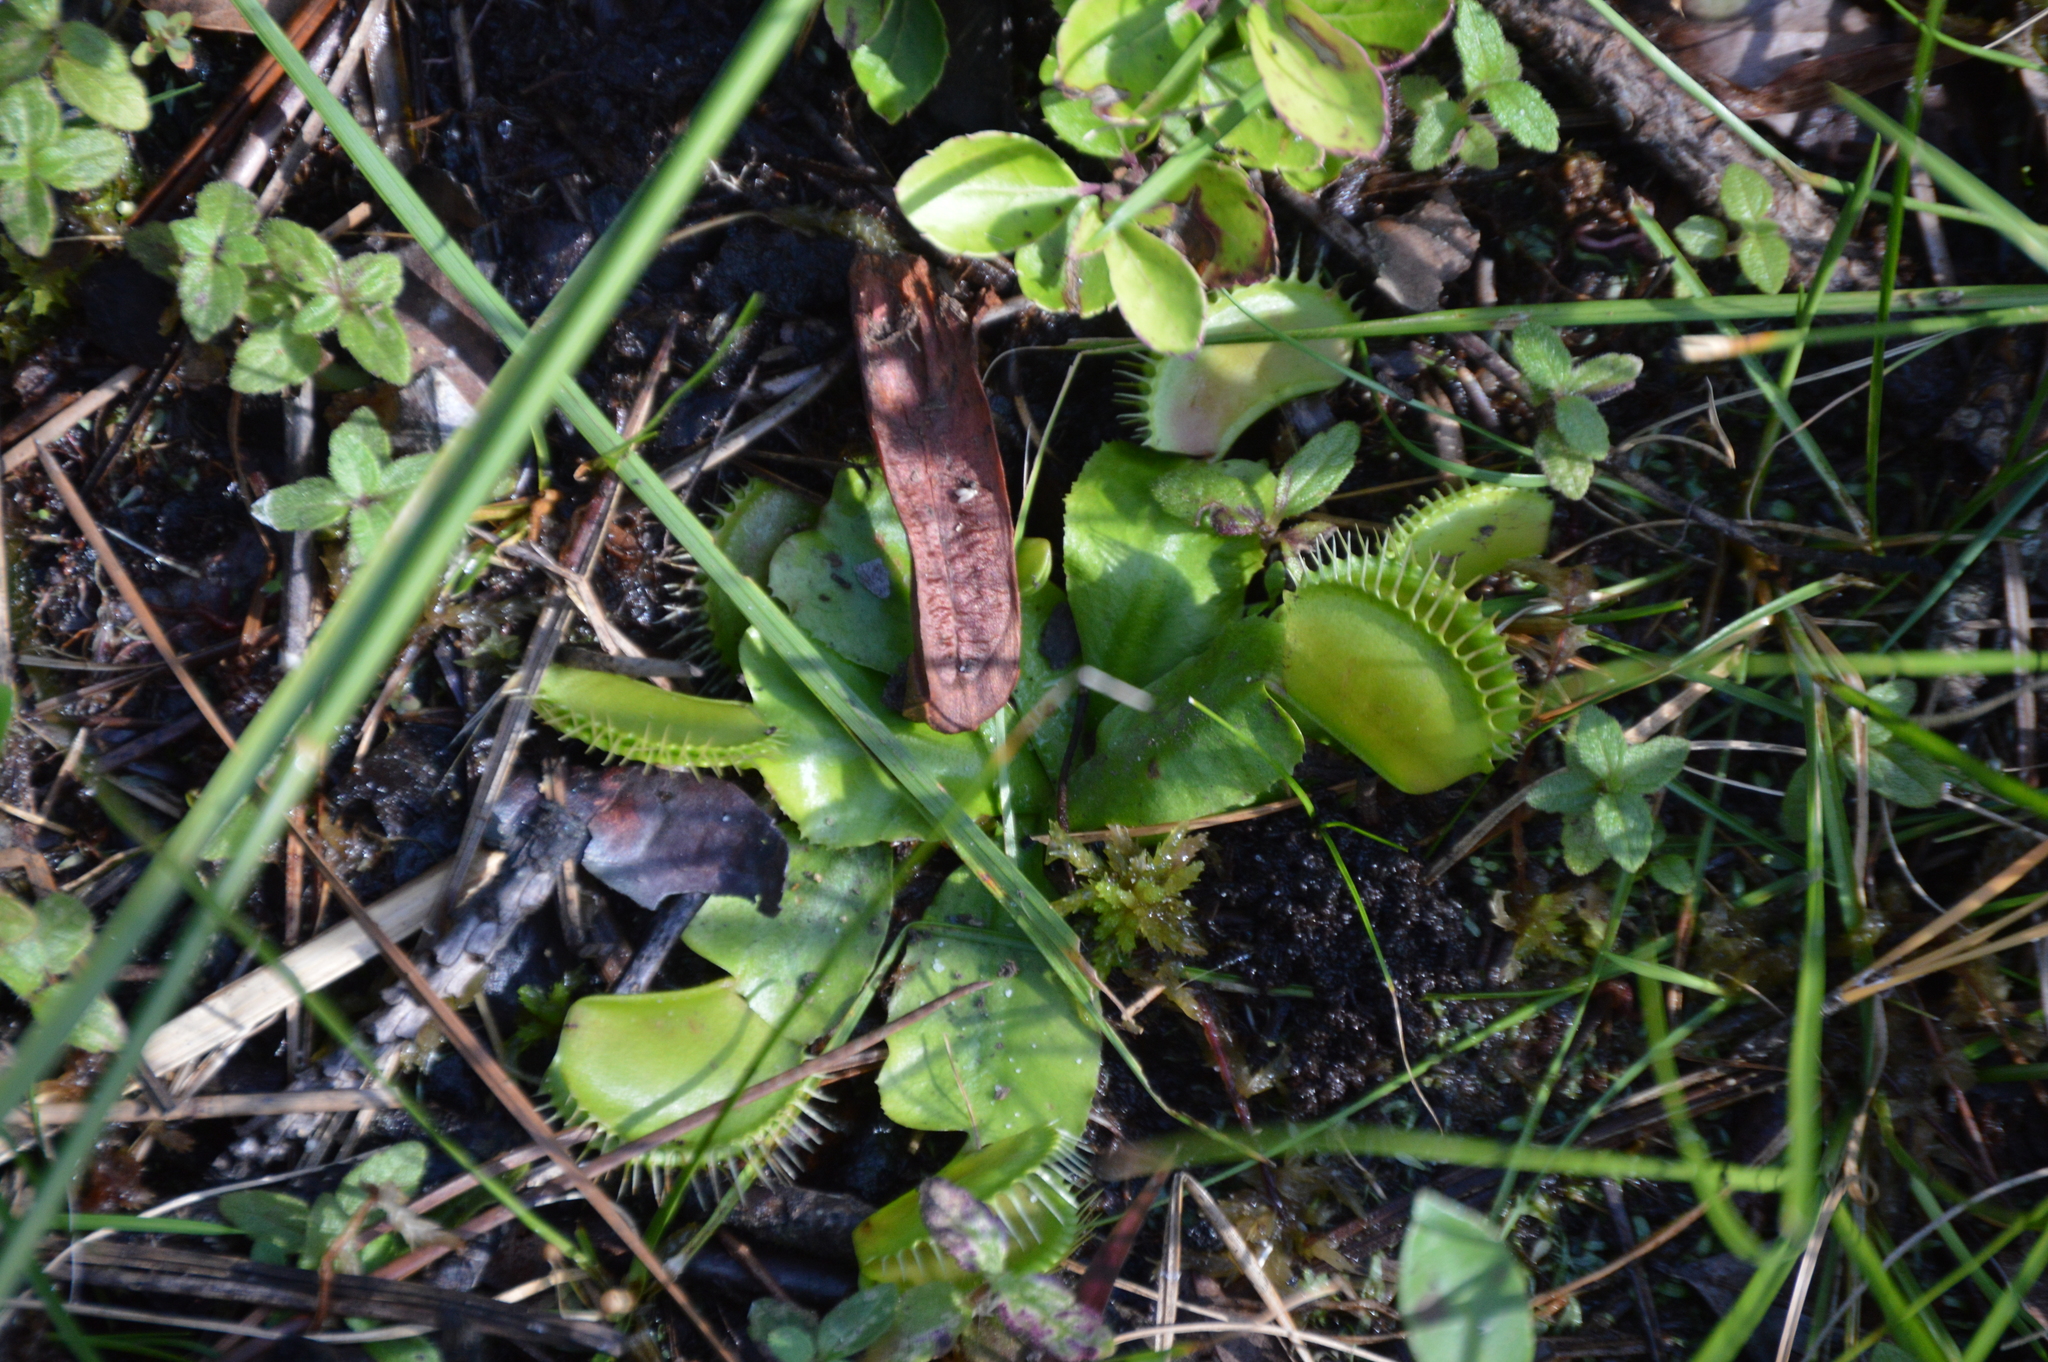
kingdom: Plantae
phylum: Tracheophyta
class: Magnoliopsida
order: Caryophyllales
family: Droseraceae
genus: Dionaea
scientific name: Dionaea muscipula
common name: Venus flytrap
